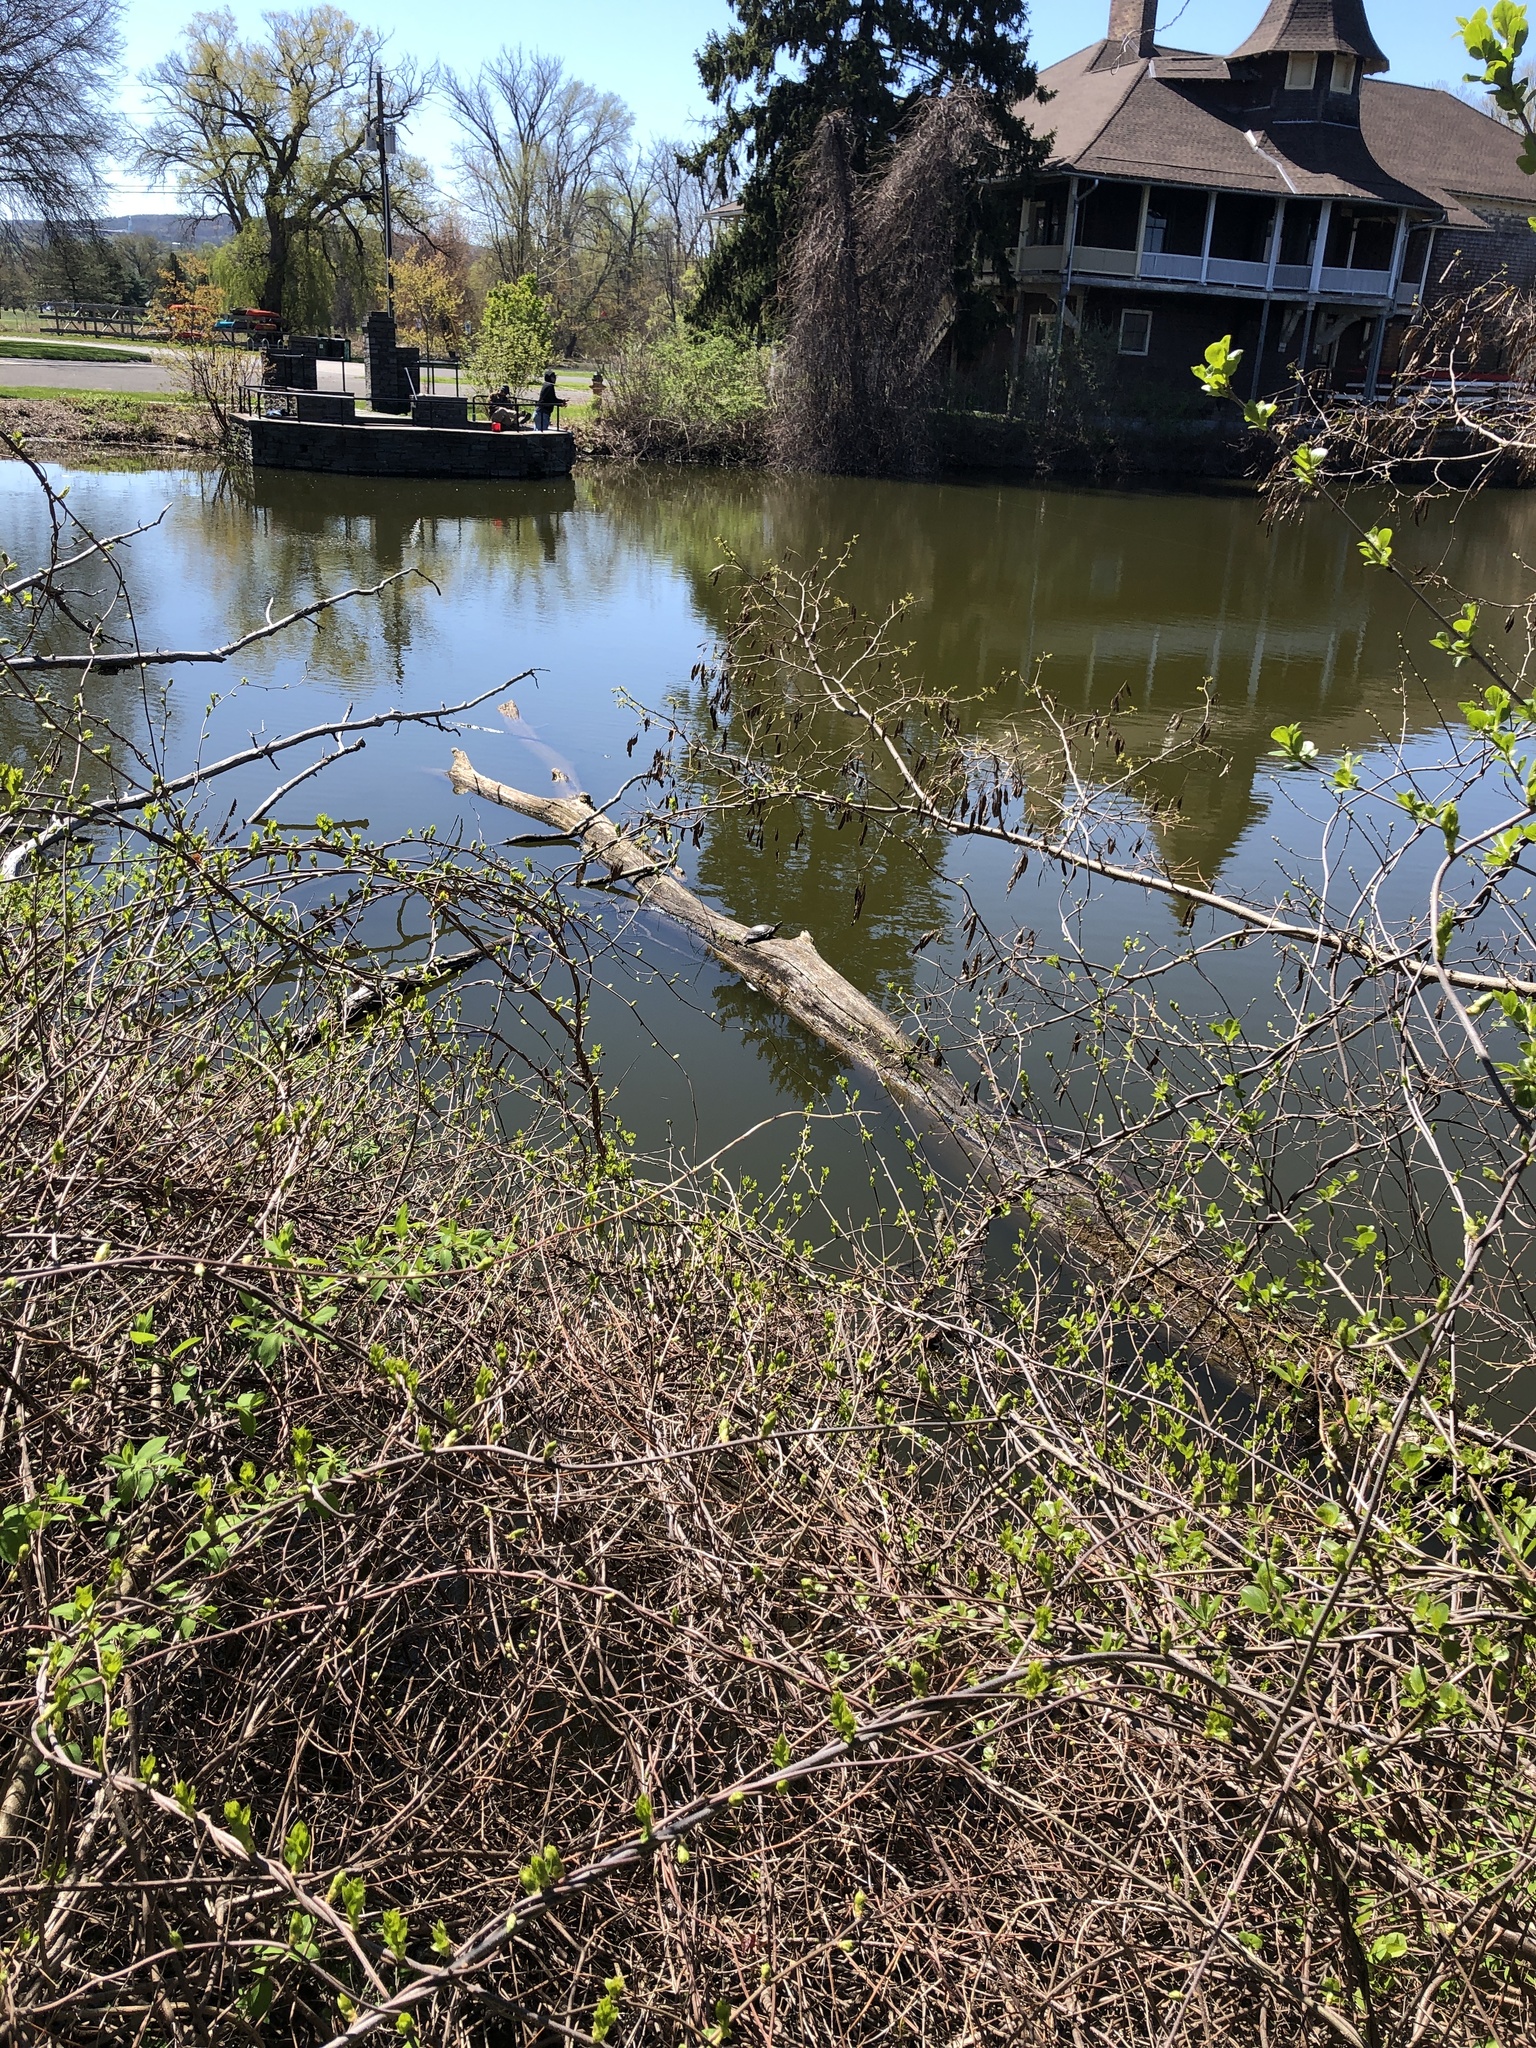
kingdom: Animalia
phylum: Chordata
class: Testudines
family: Emydidae
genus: Chrysemys
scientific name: Chrysemys picta
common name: Painted turtle
